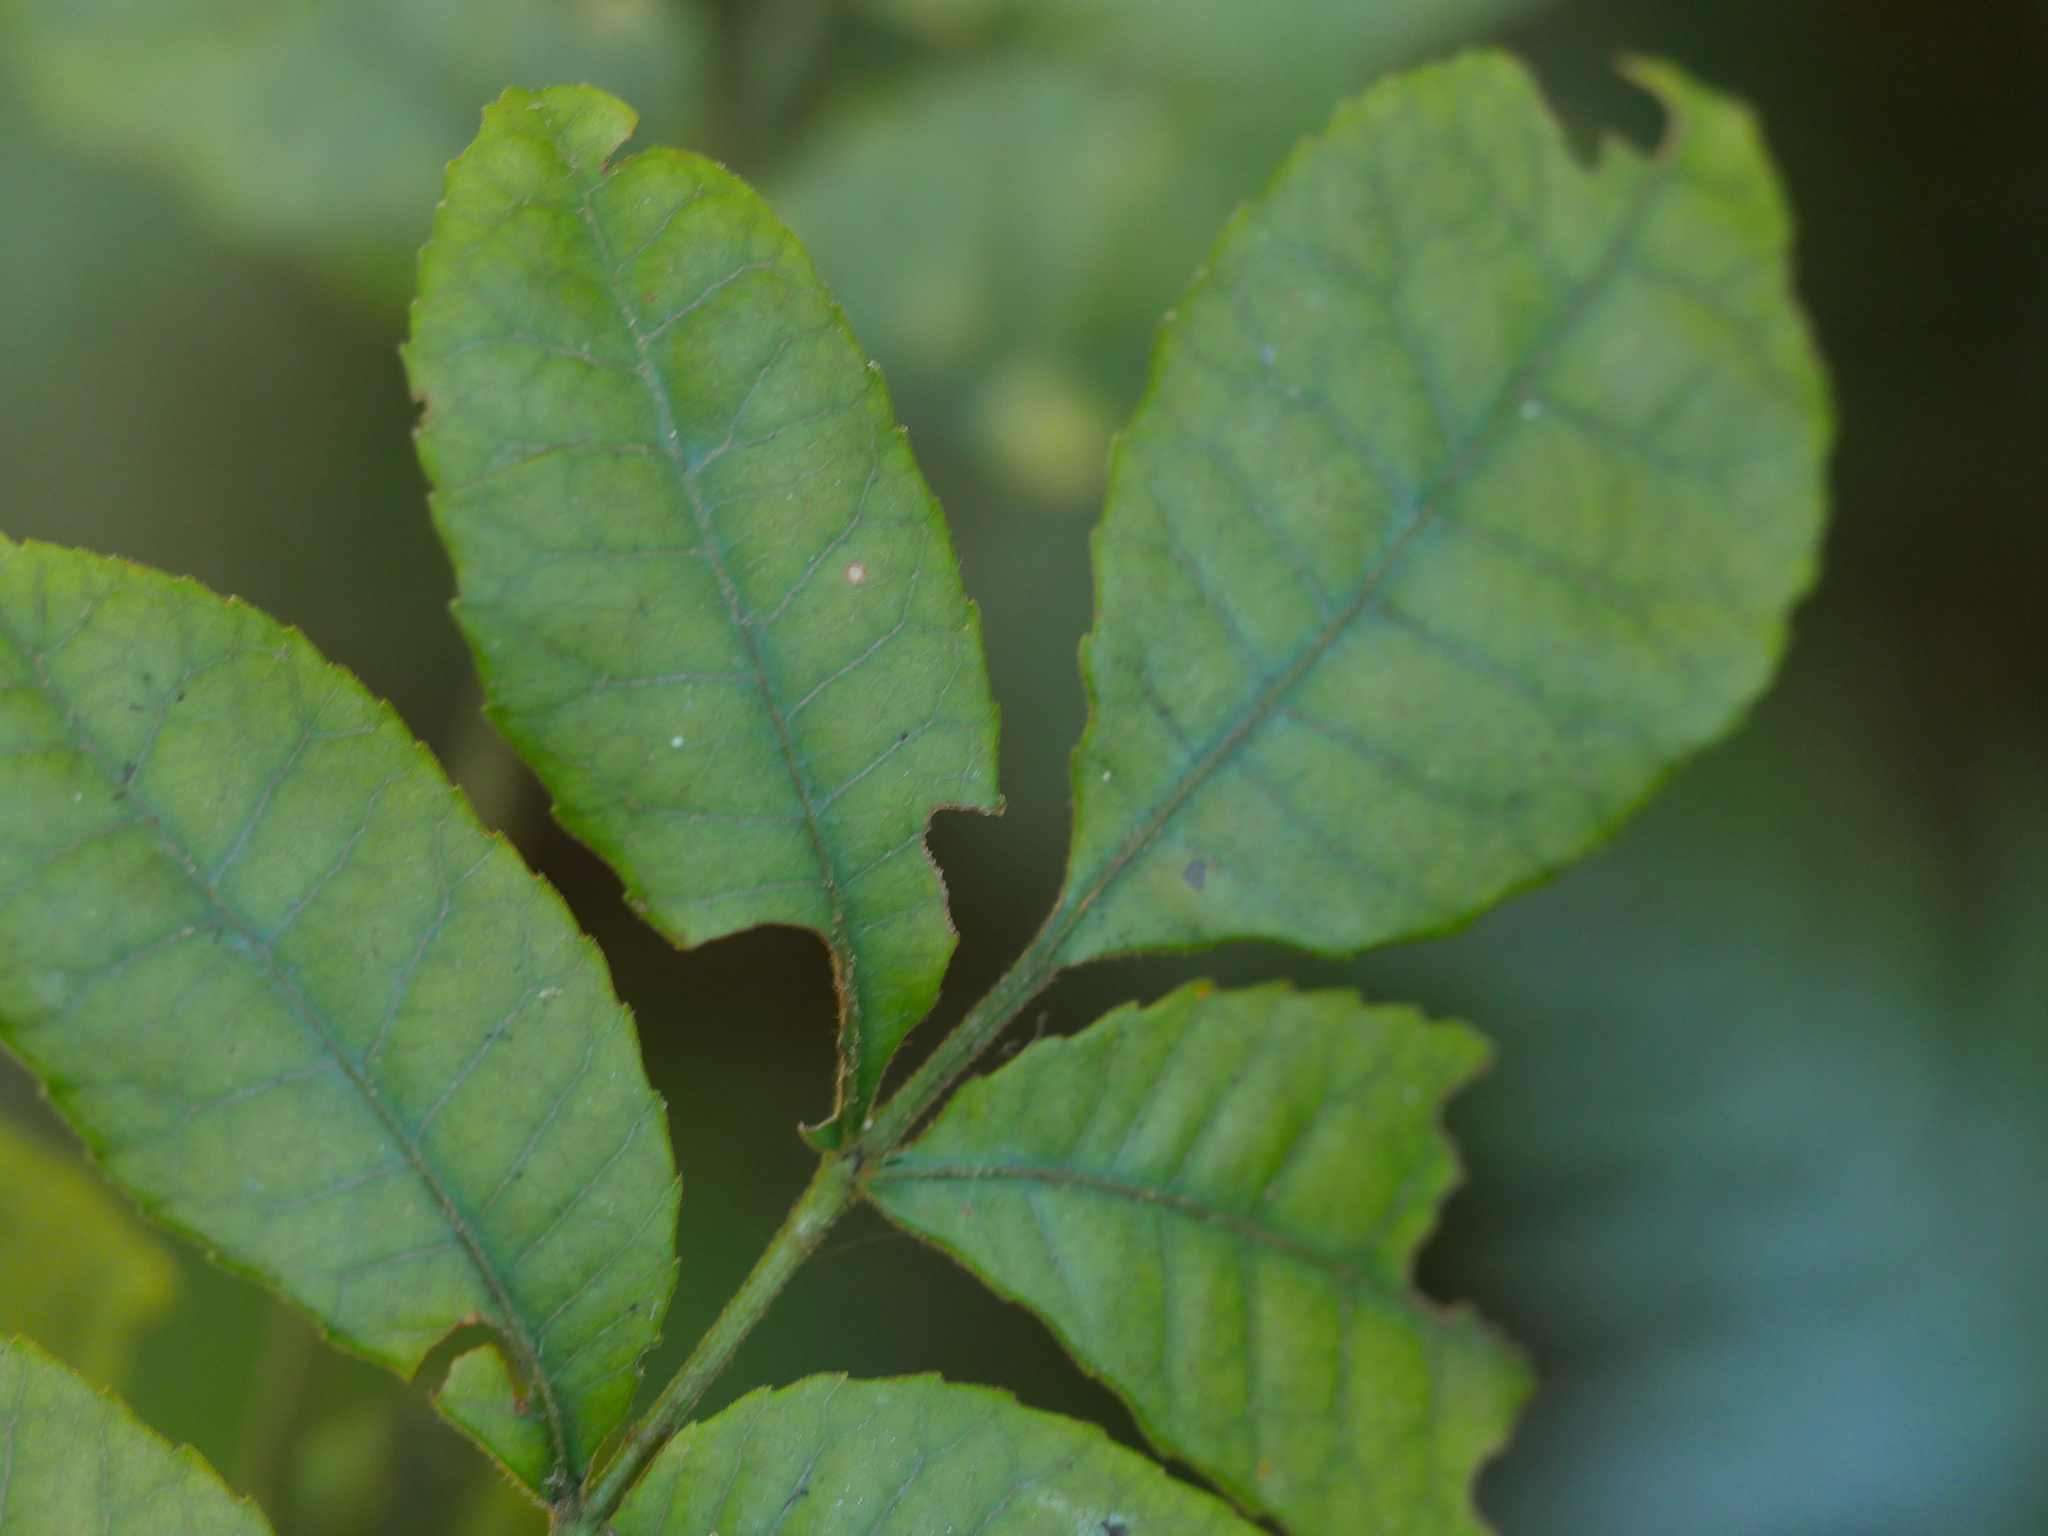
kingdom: Plantae
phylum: Tracheophyta
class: Magnoliopsida
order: Oxalidales
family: Cunoniaceae
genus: Ackama
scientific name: Ackama rosifolia
